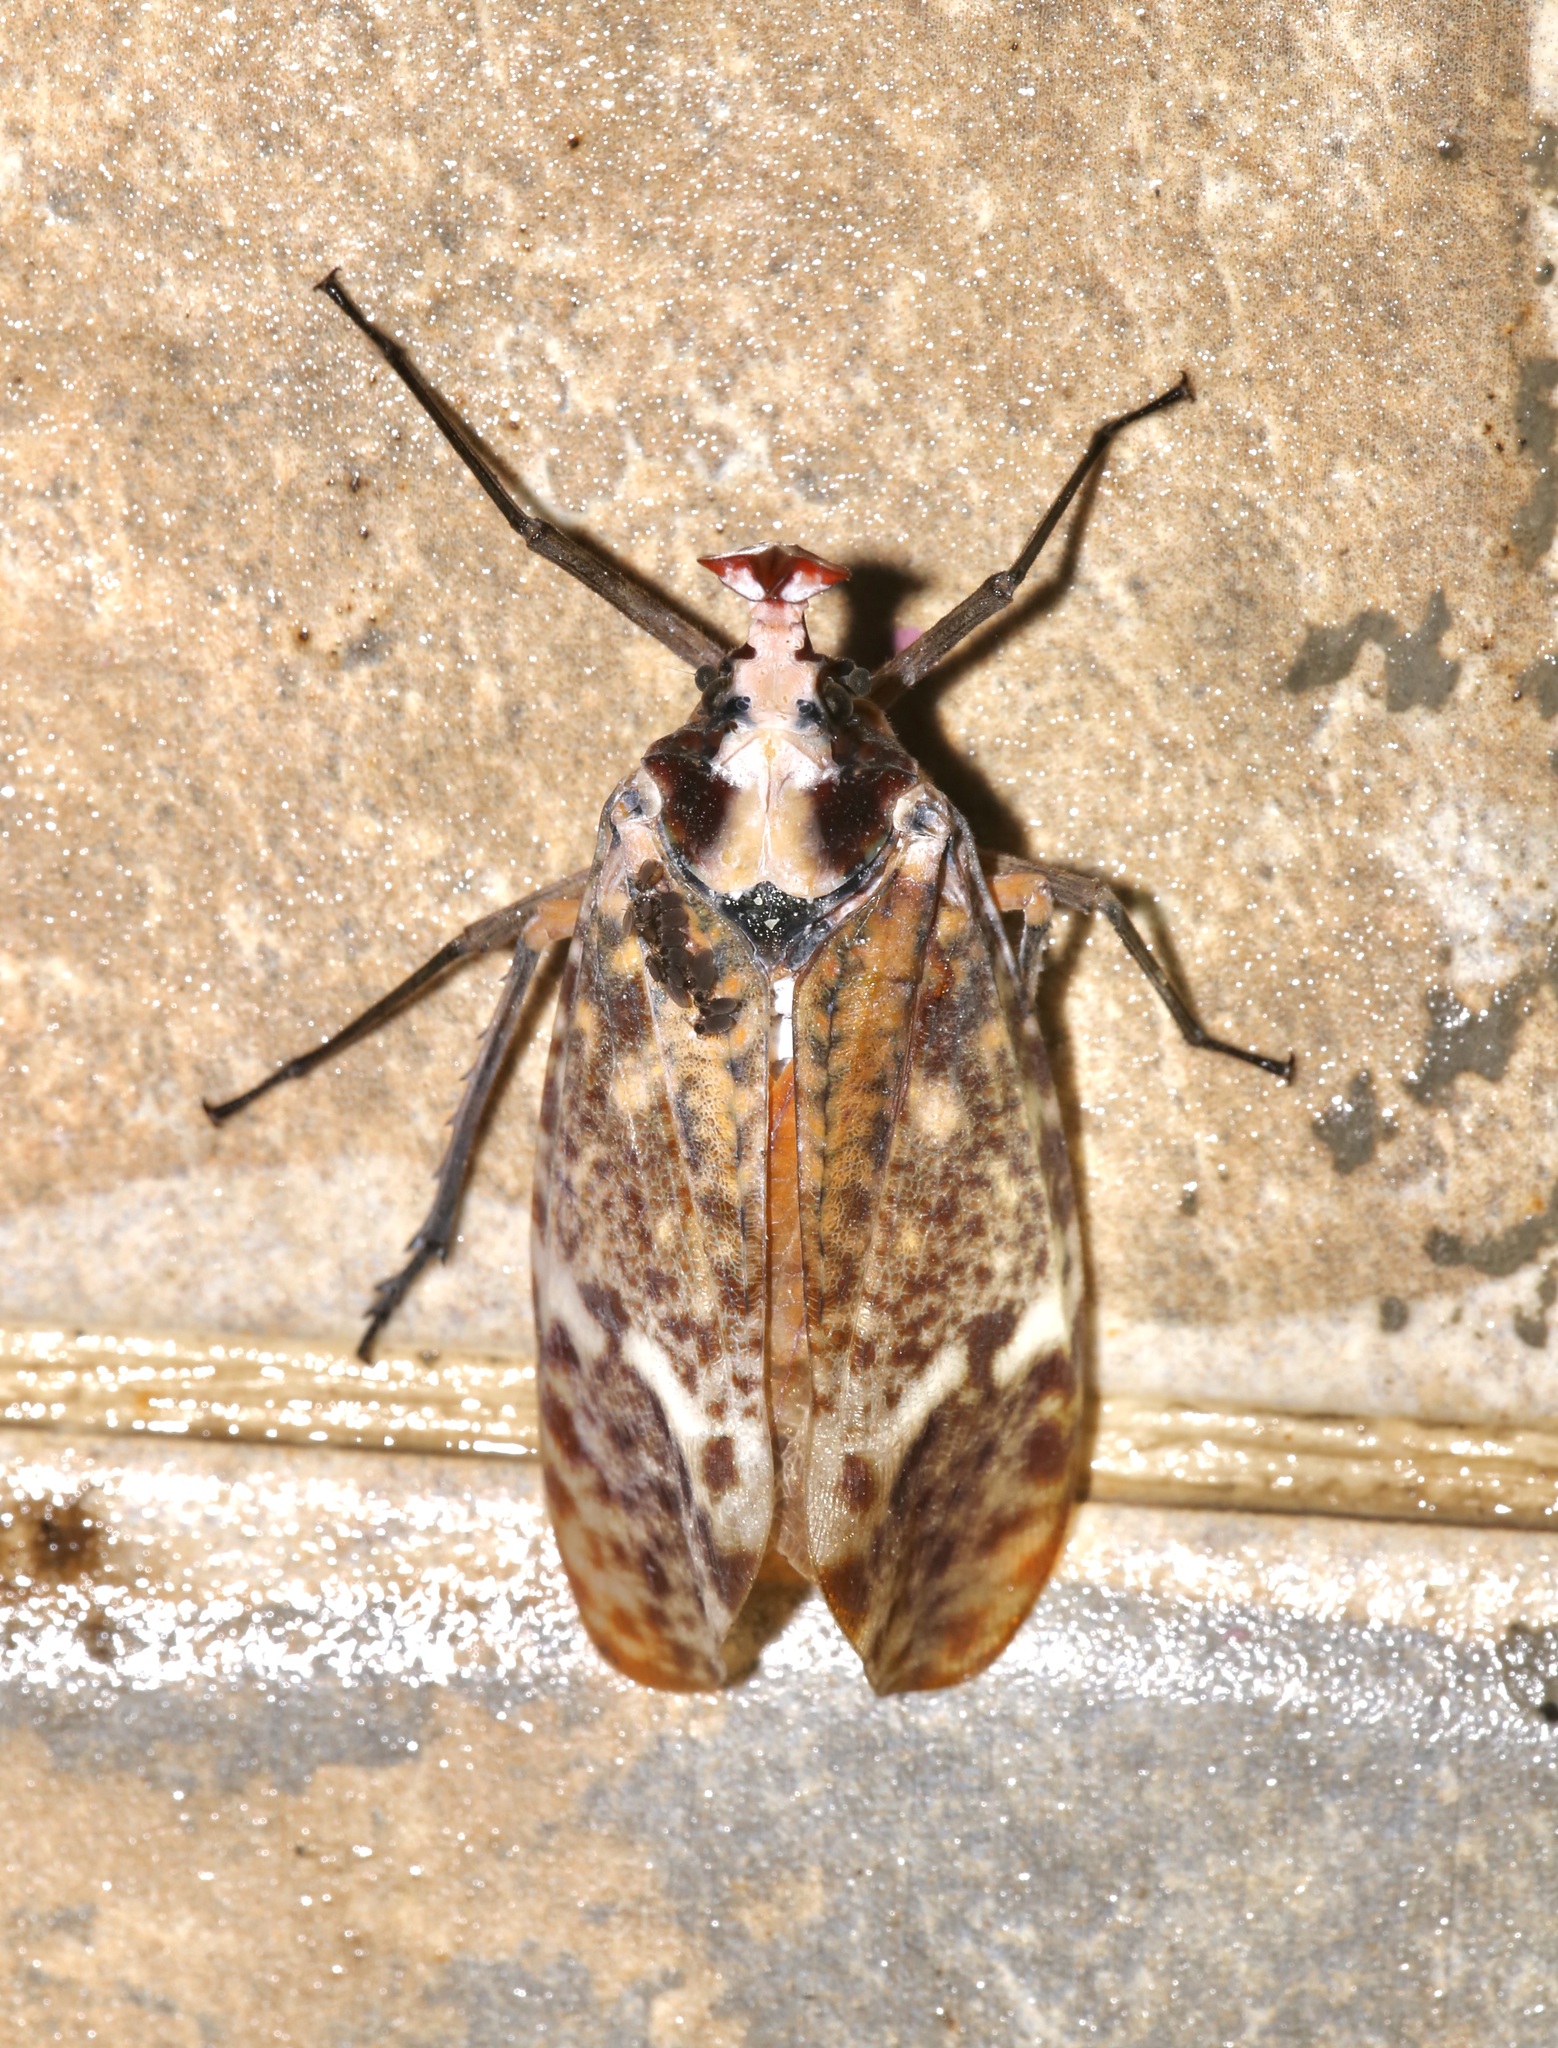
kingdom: Animalia
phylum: Arthropoda
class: Insecta
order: Hemiptera
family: Fulgoridae
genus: Phrictus
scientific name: Phrictus moebiusi
